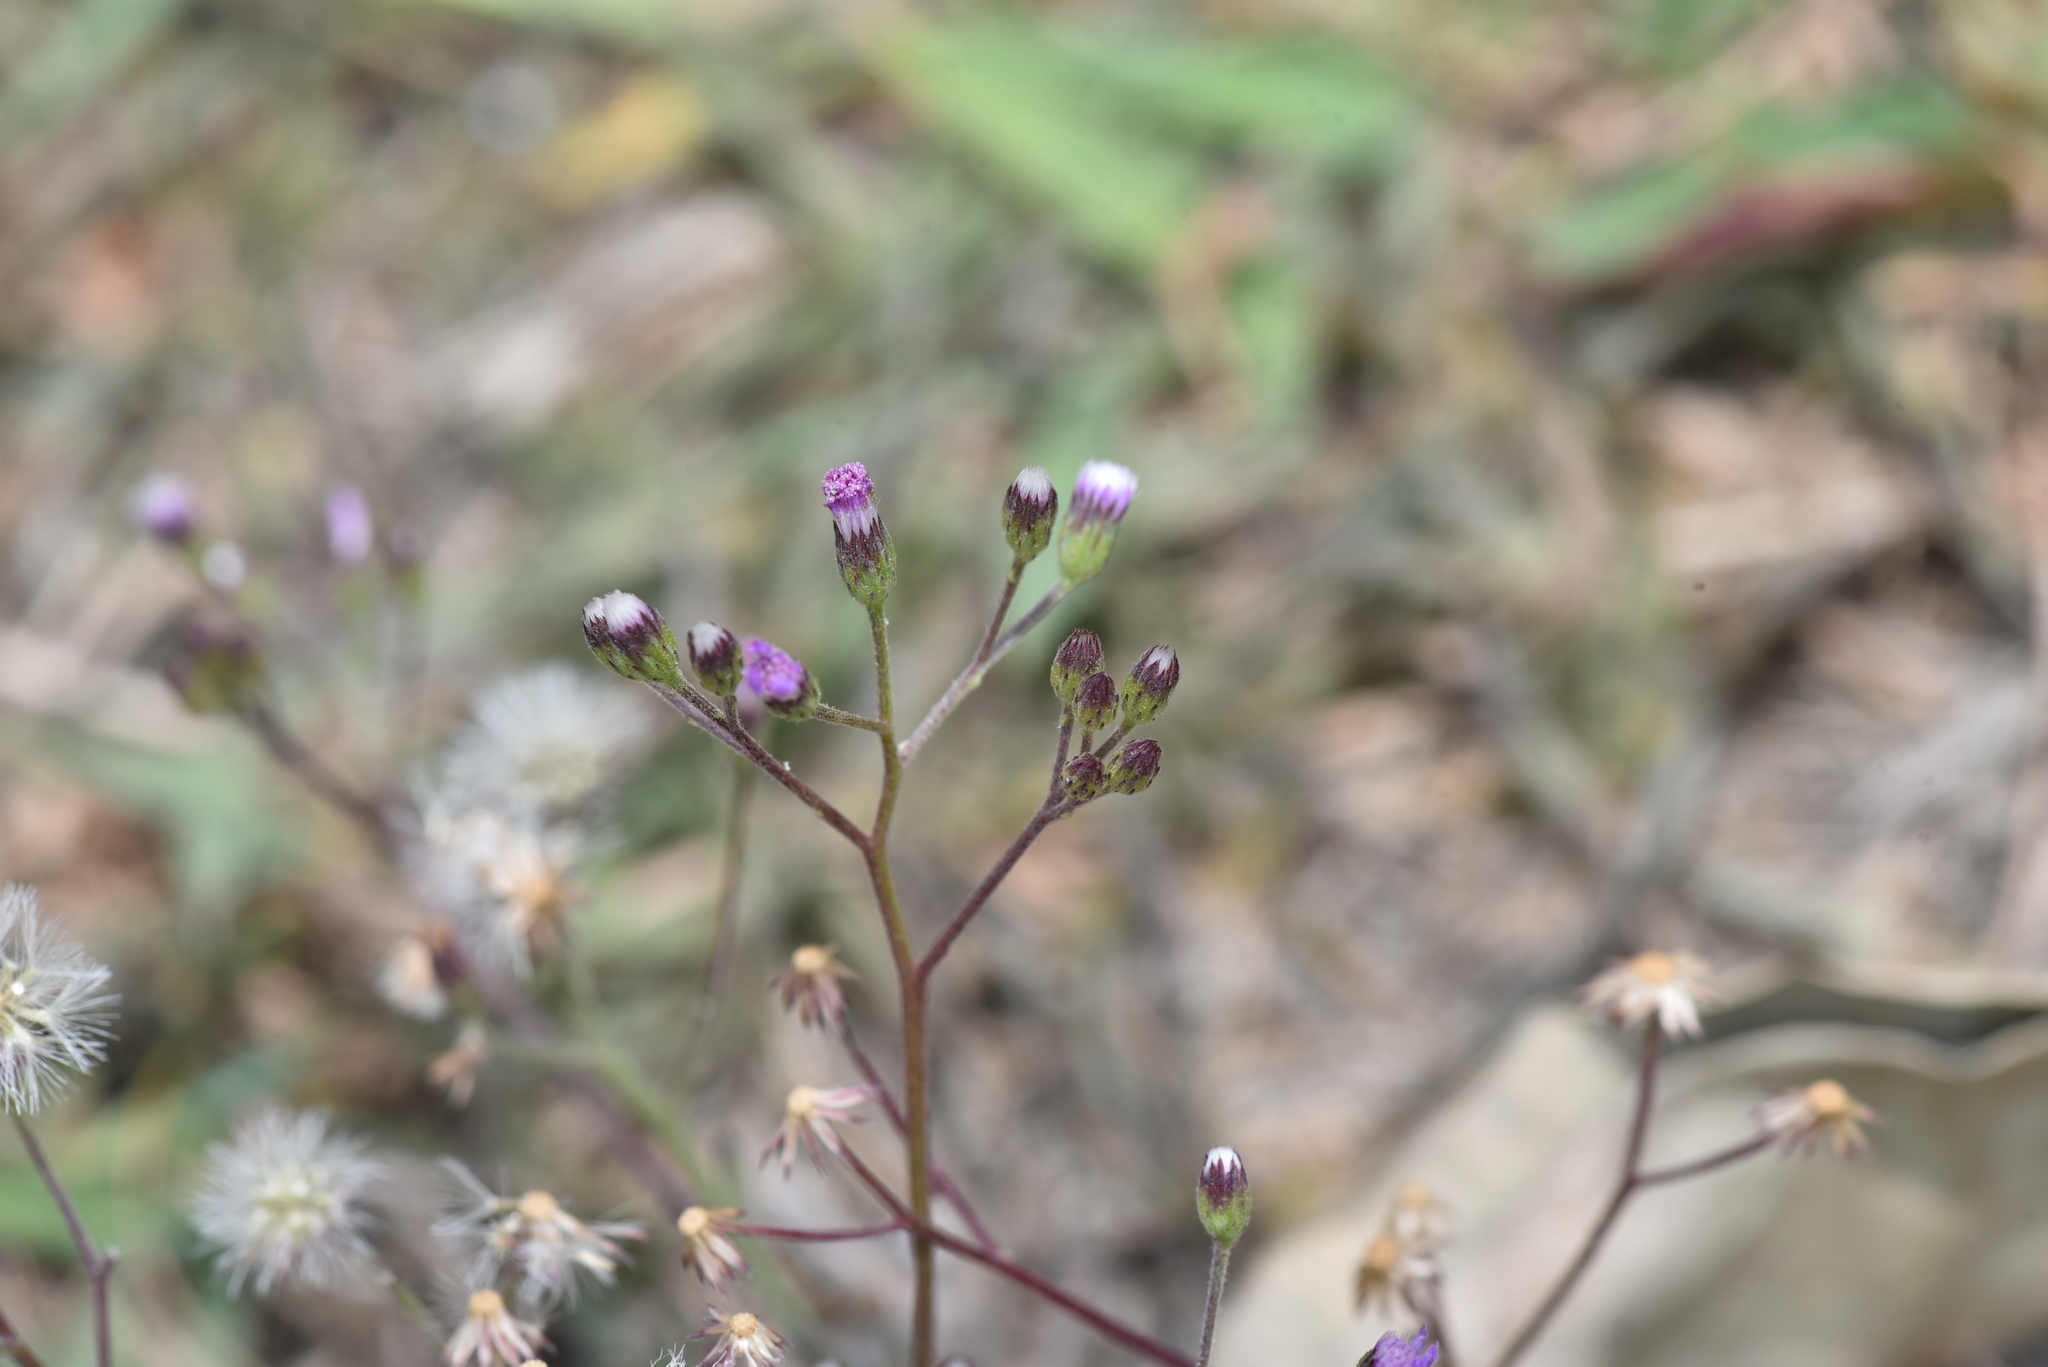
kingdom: Plantae
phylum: Tracheophyta
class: Magnoliopsida
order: Asterales
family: Asteraceae
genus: Cyanthillium
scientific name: Cyanthillium cinereum
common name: Little ironweed
